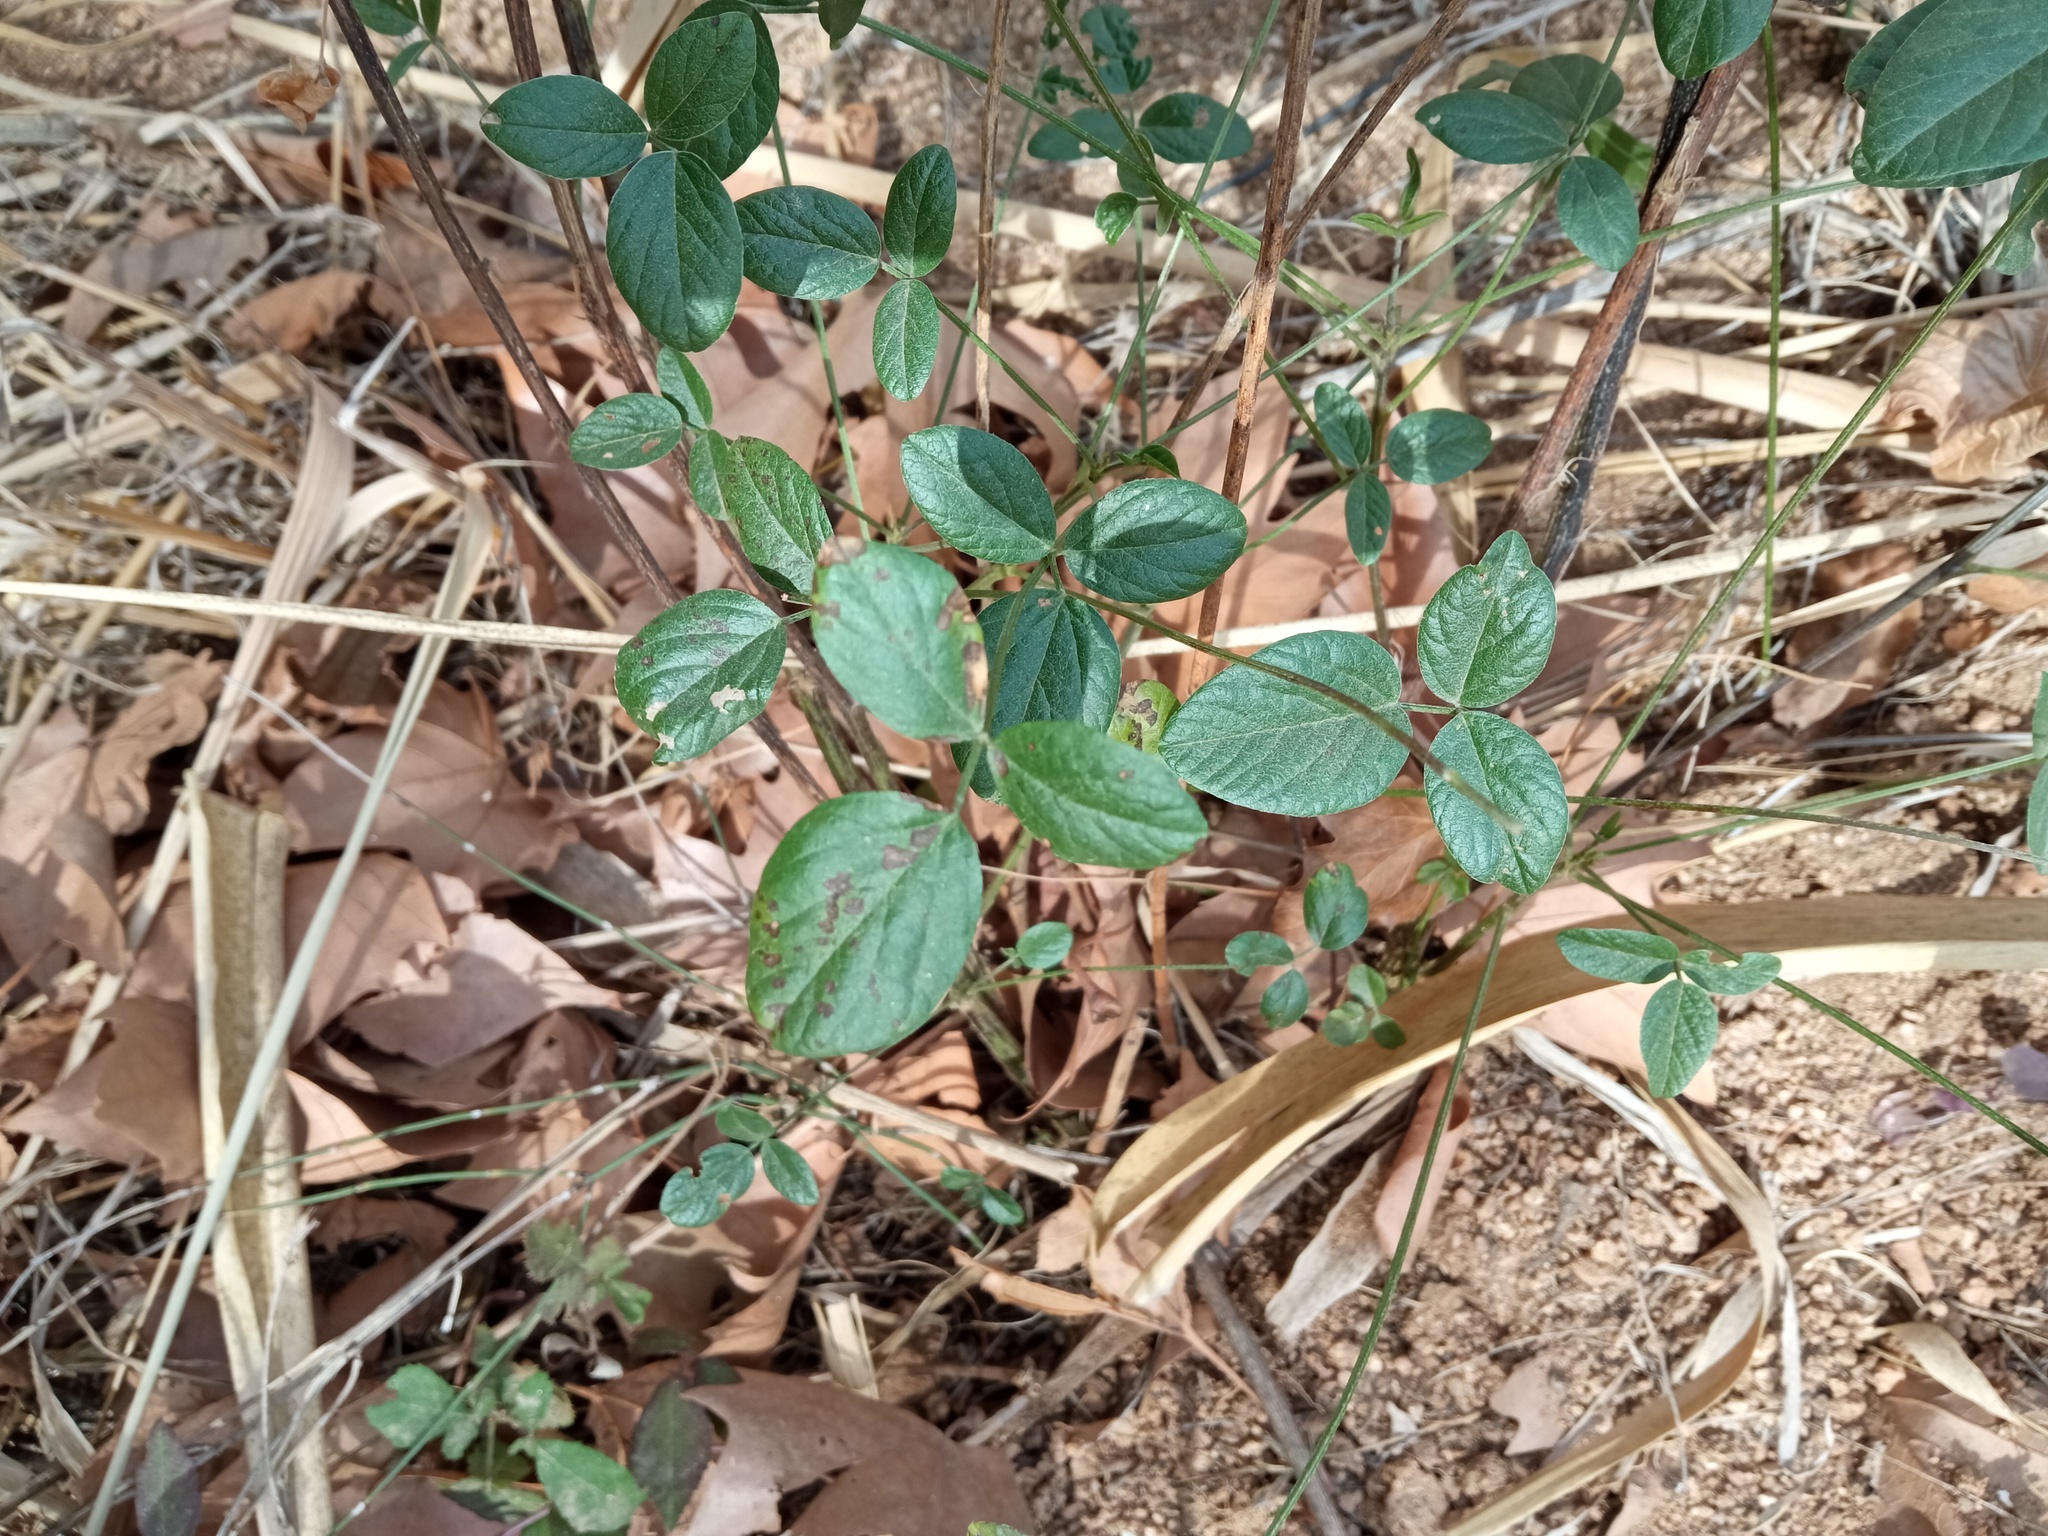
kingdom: Plantae
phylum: Tracheophyta
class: Magnoliopsida
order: Fabales
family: Fabaceae
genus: Bituminaria
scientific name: Bituminaria bituminosa
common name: Arabian pea
